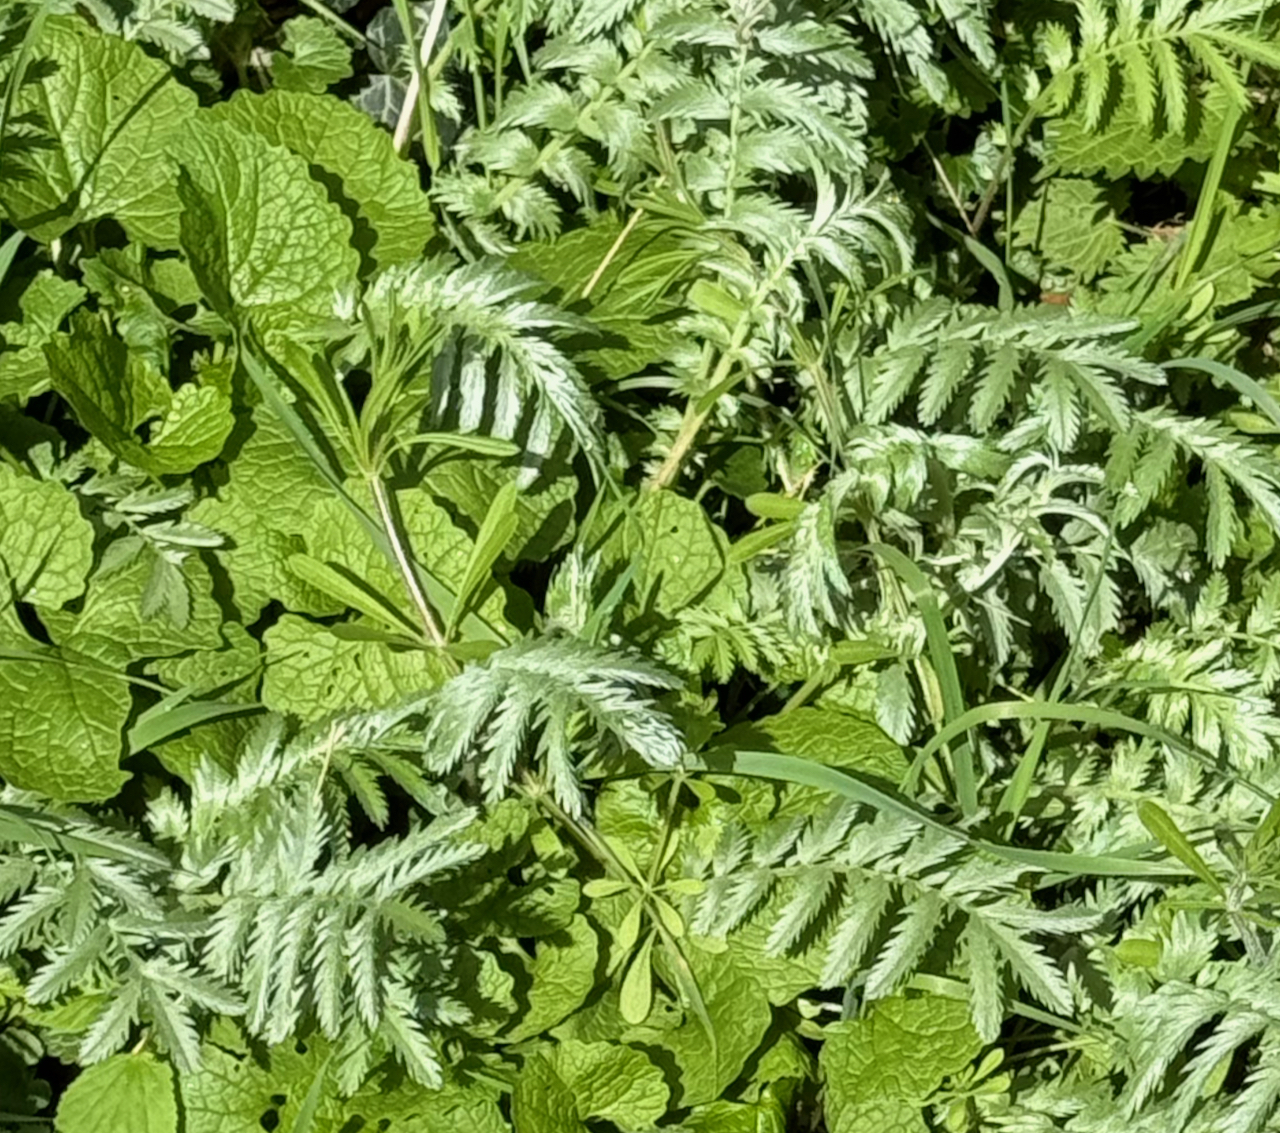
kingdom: Plantae
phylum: Tracheophyta
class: Magnoliopsida
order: Rosales
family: Rosaceae
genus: Argentina
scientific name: Argentina anserina
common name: Common silverweed
